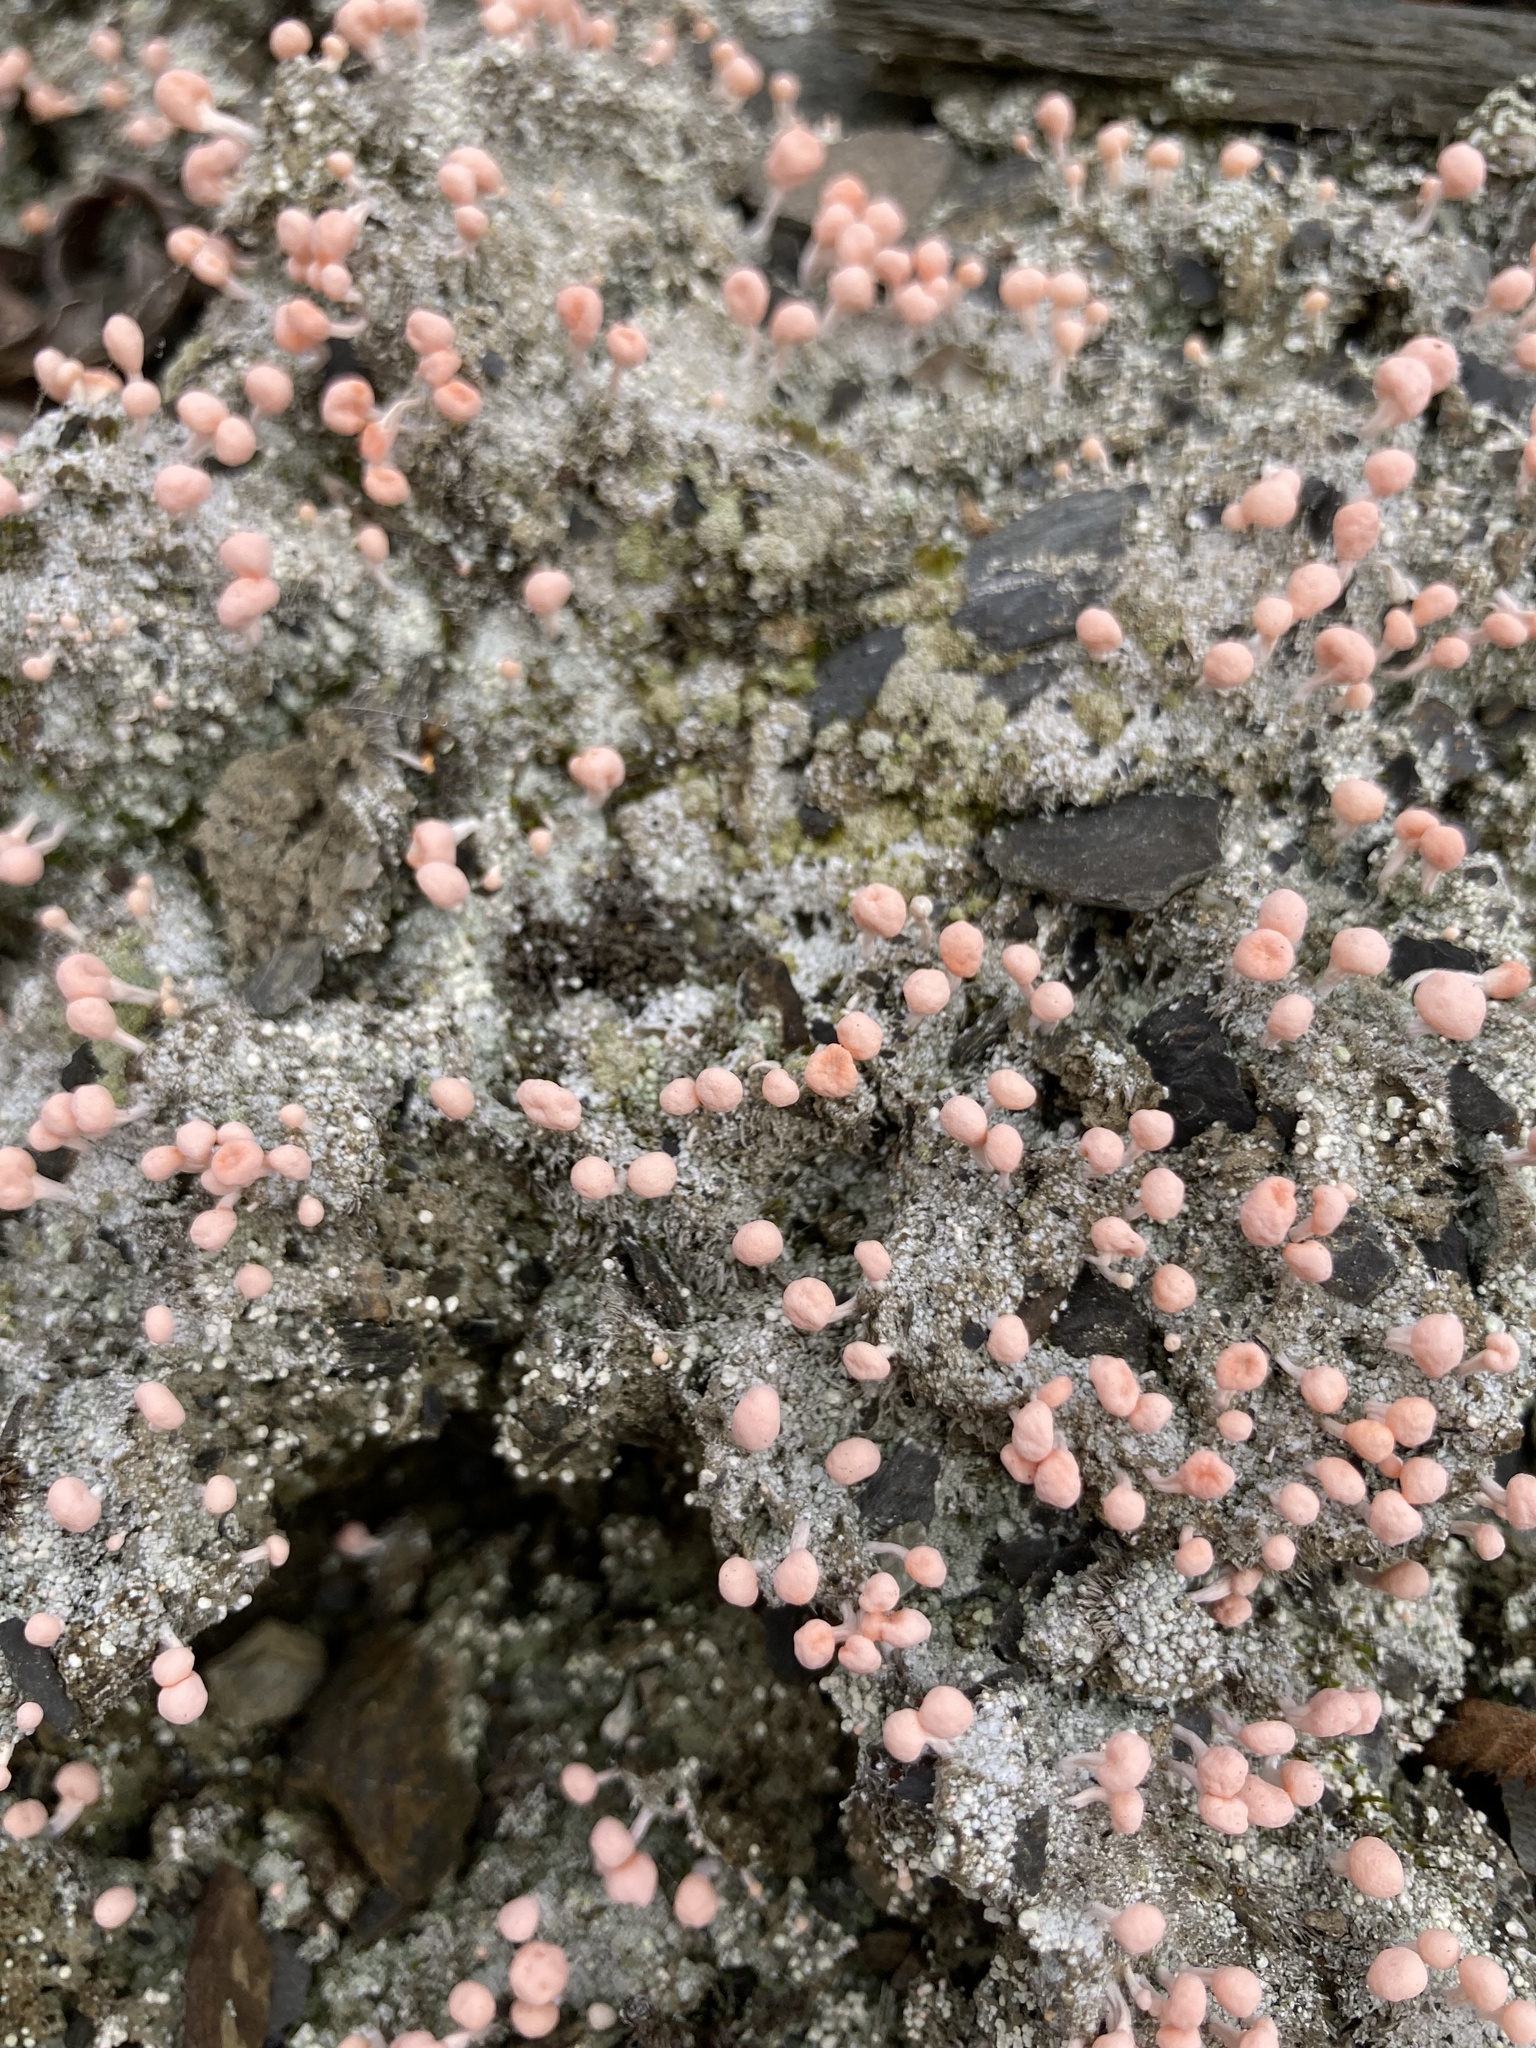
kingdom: Fungi
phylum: Ascomycota
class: Lecanoromycetes
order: Pertusariales
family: Icmadophilaceae
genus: Dibaeis
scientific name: Dibaeis baeomyces
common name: Pink earth lichen
